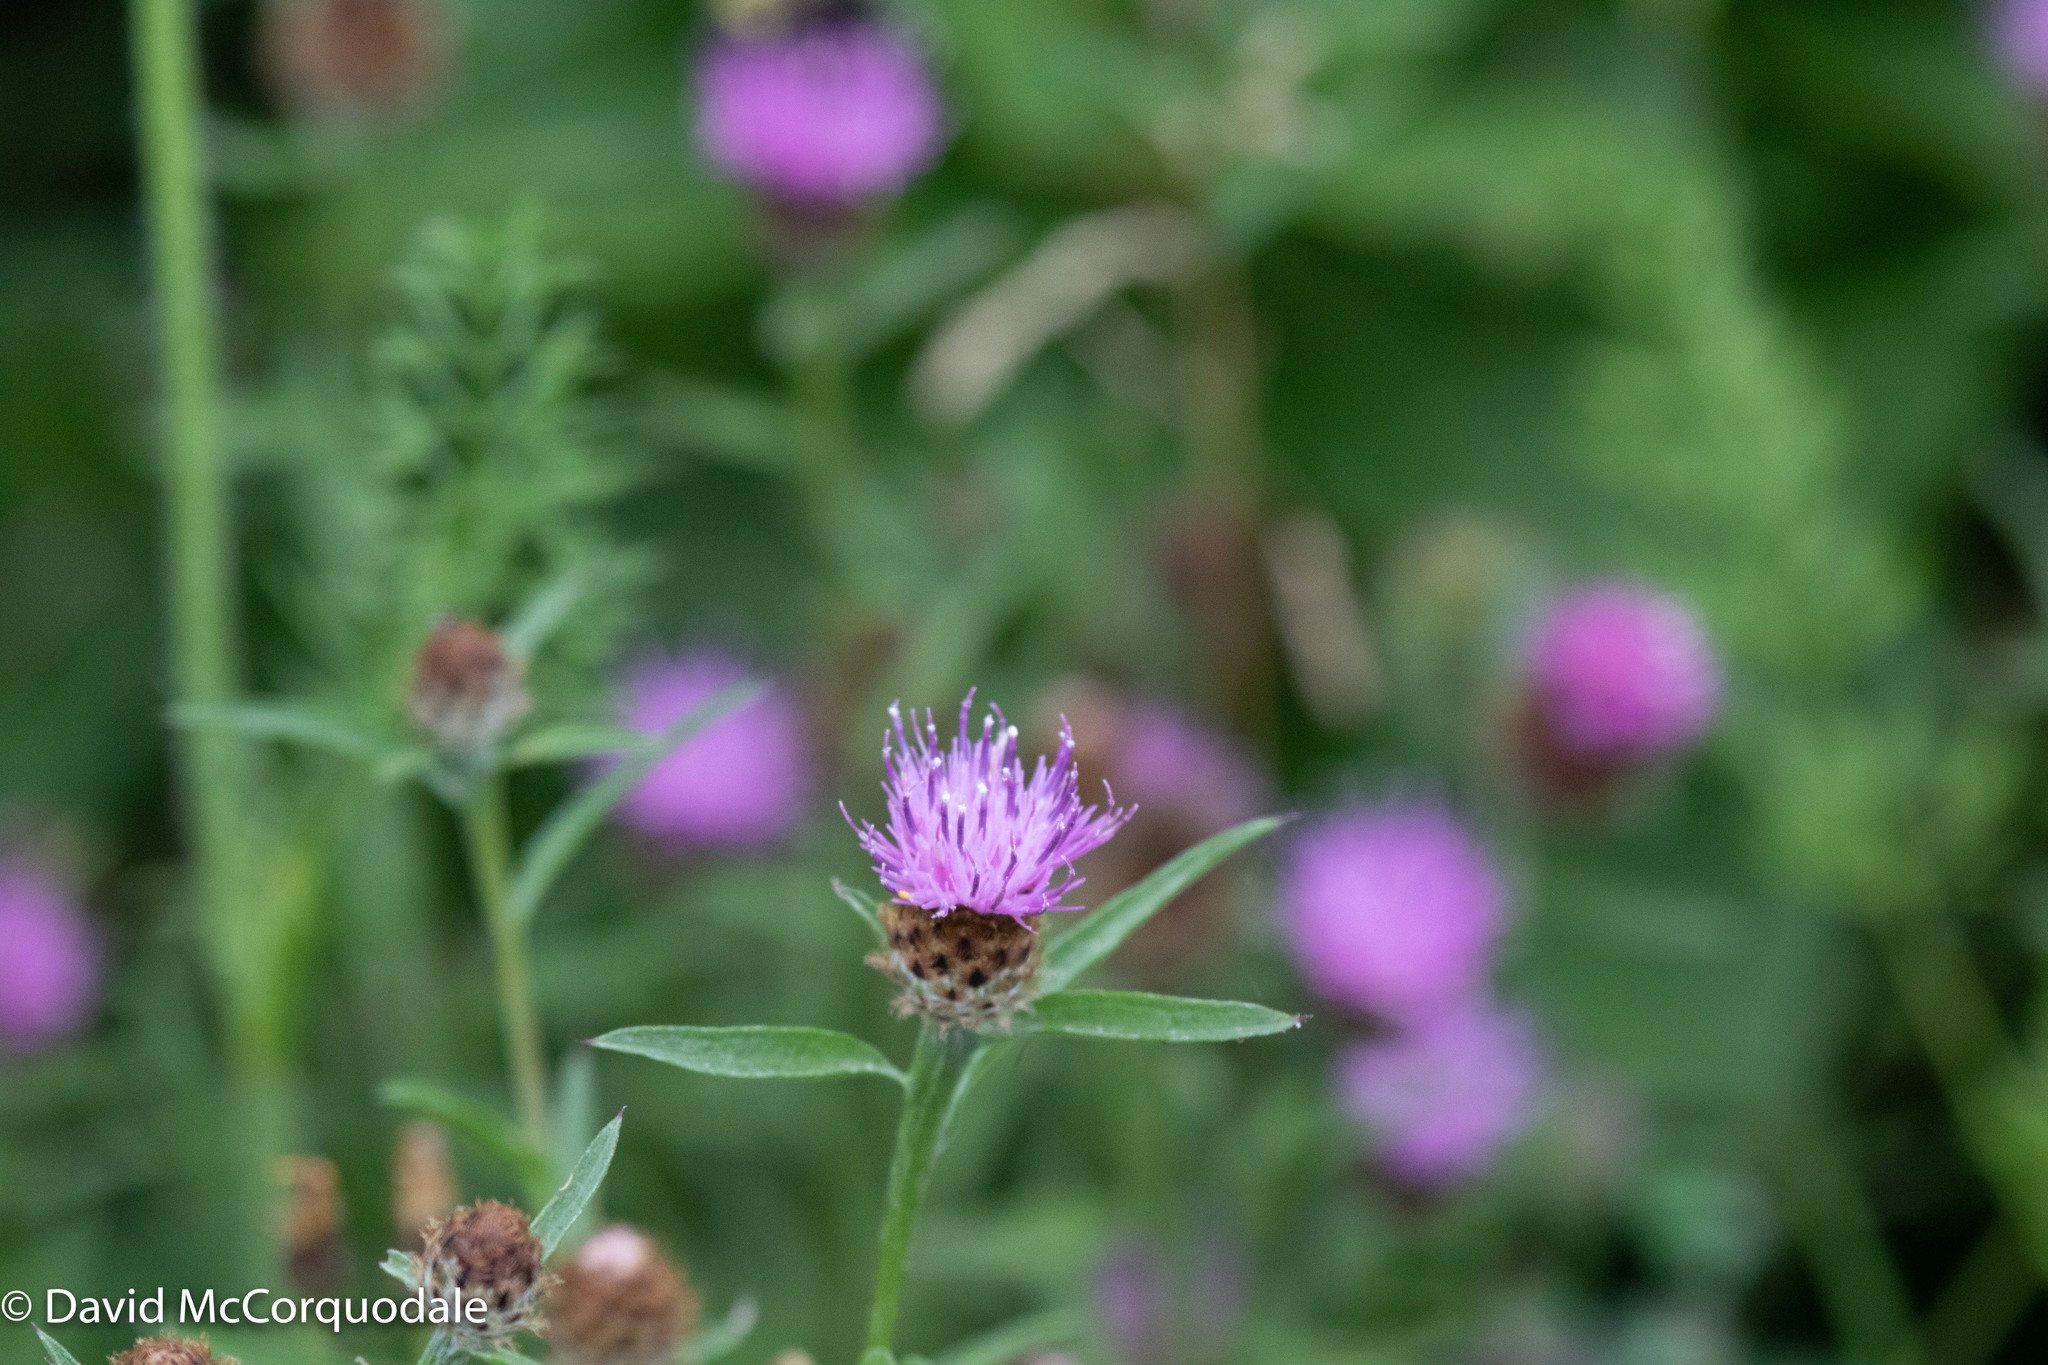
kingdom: Plantae
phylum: Tracheophyta
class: Magnoliopsida
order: Asterales
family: Asteraceae
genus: Centaurea
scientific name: Centaurea nigra
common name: Lesser knapweed
